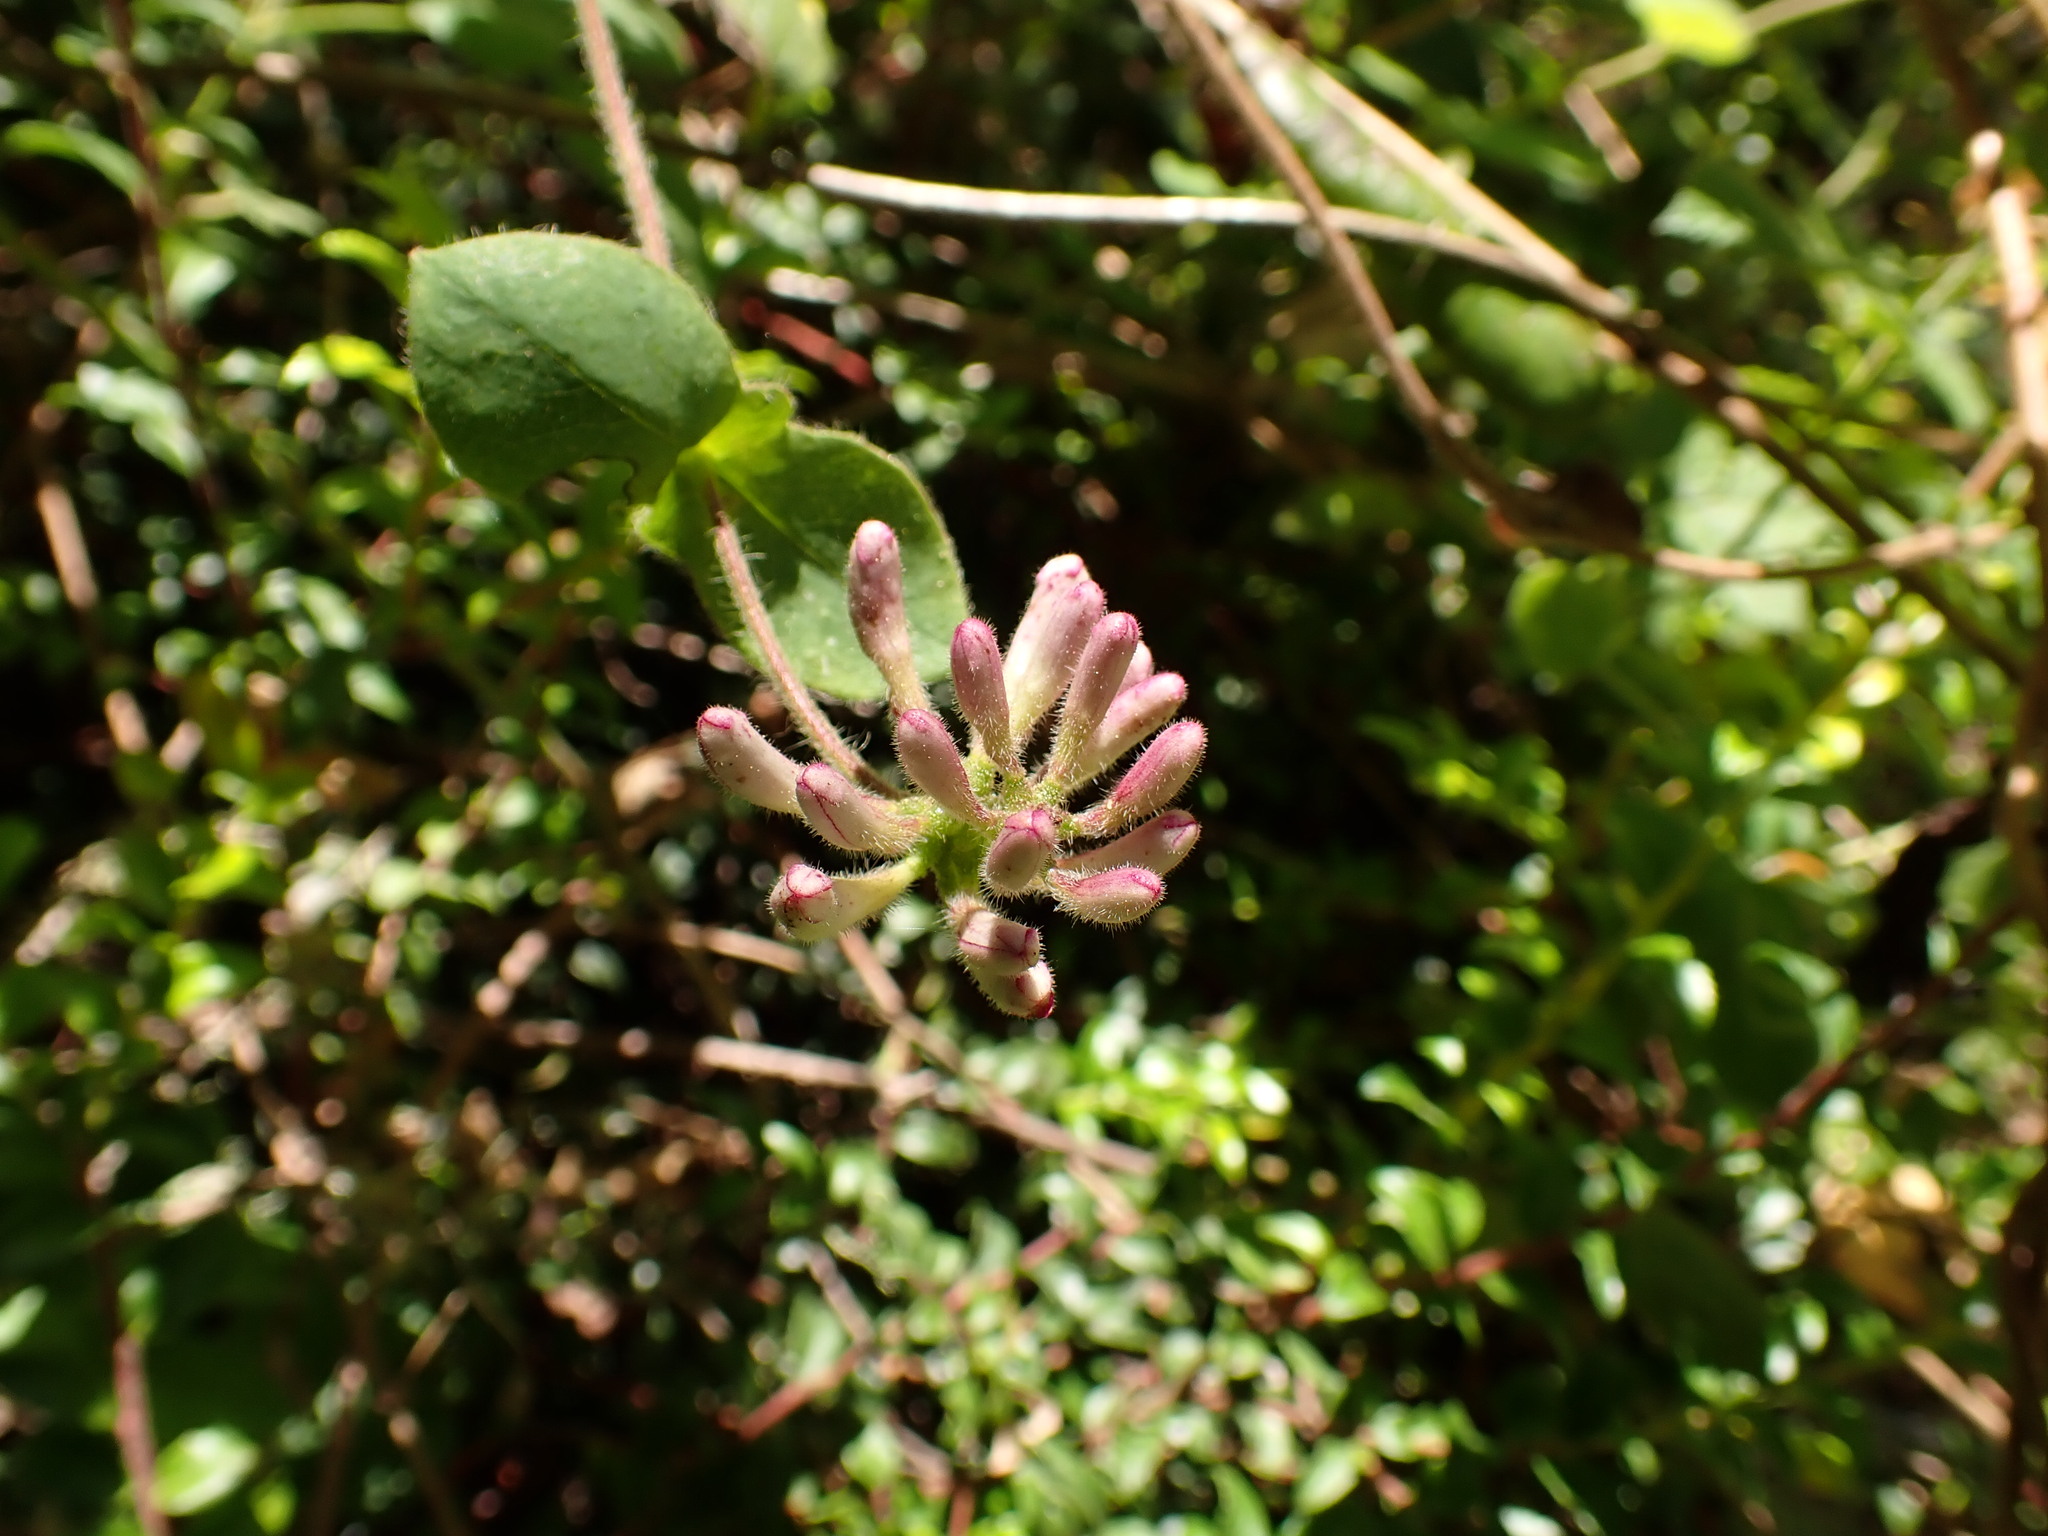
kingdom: Plantae
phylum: Tracheophyta
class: Magnoliopsida
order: Dipsacales
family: Caprifoliaceae
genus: Lonicera
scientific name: Lonicera hispidula
